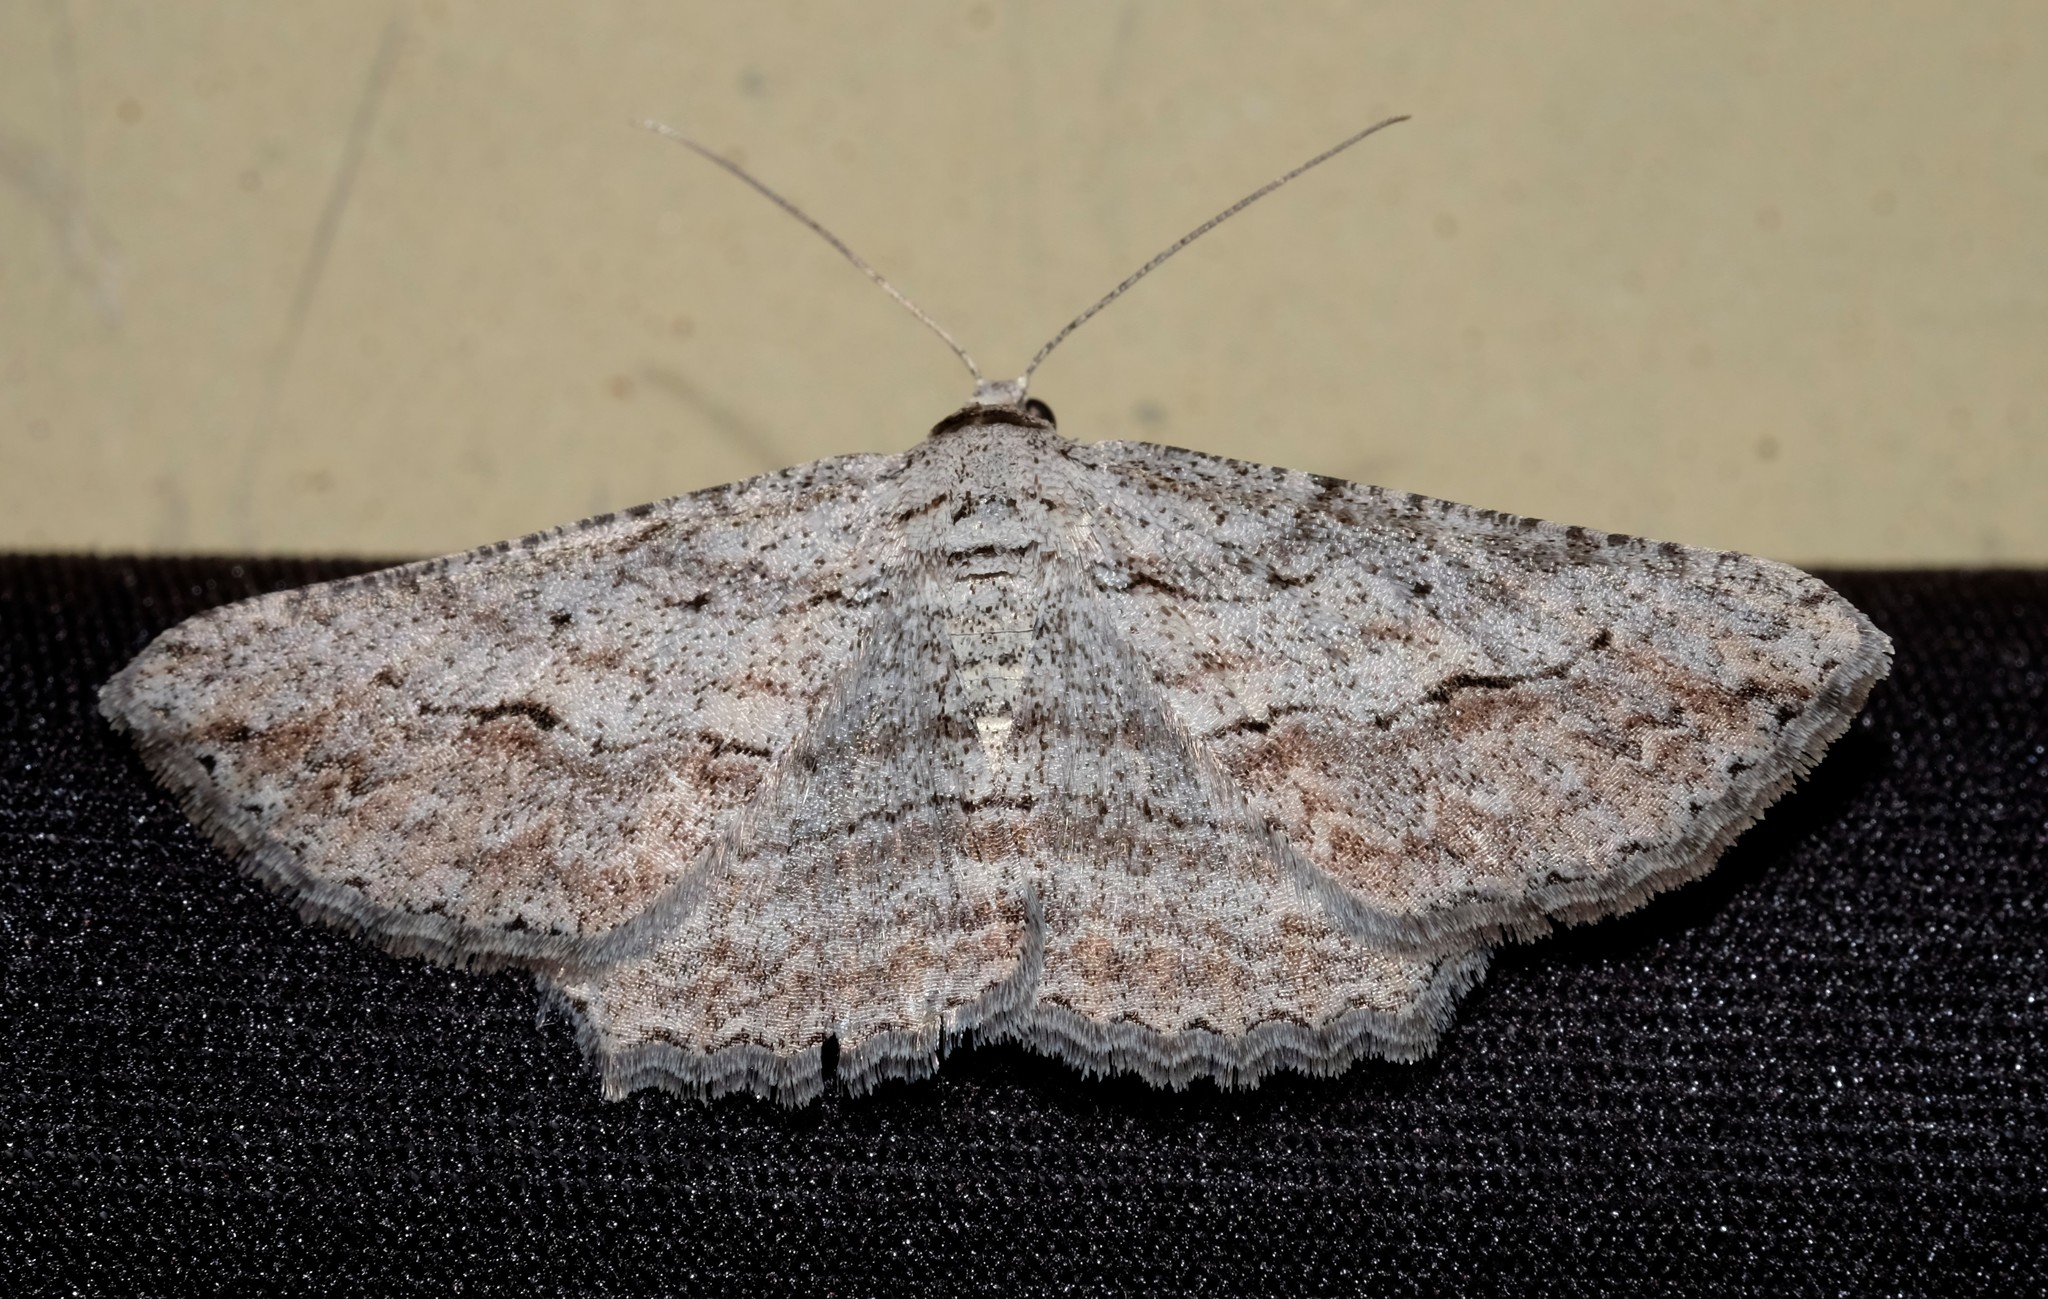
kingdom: Animalia
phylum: Arthropoda
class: Insecta
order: Lepidoptera
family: Geometridae
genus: Syneora
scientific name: Syneora mundifera
